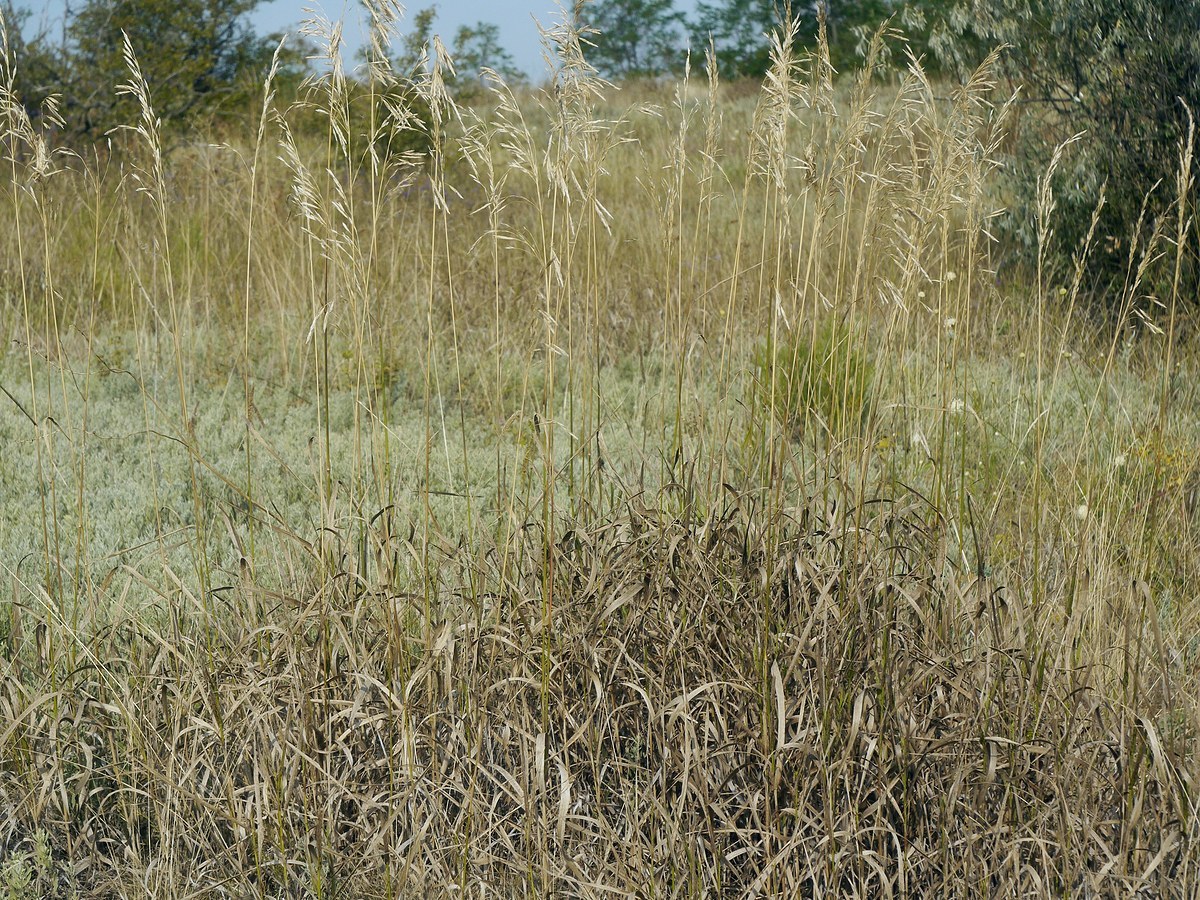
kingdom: Plantae
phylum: Tracheophyta
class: Liliopsida
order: Poales
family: Poaceae
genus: Bromus
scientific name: Bromus inermis
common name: Smooth brome
